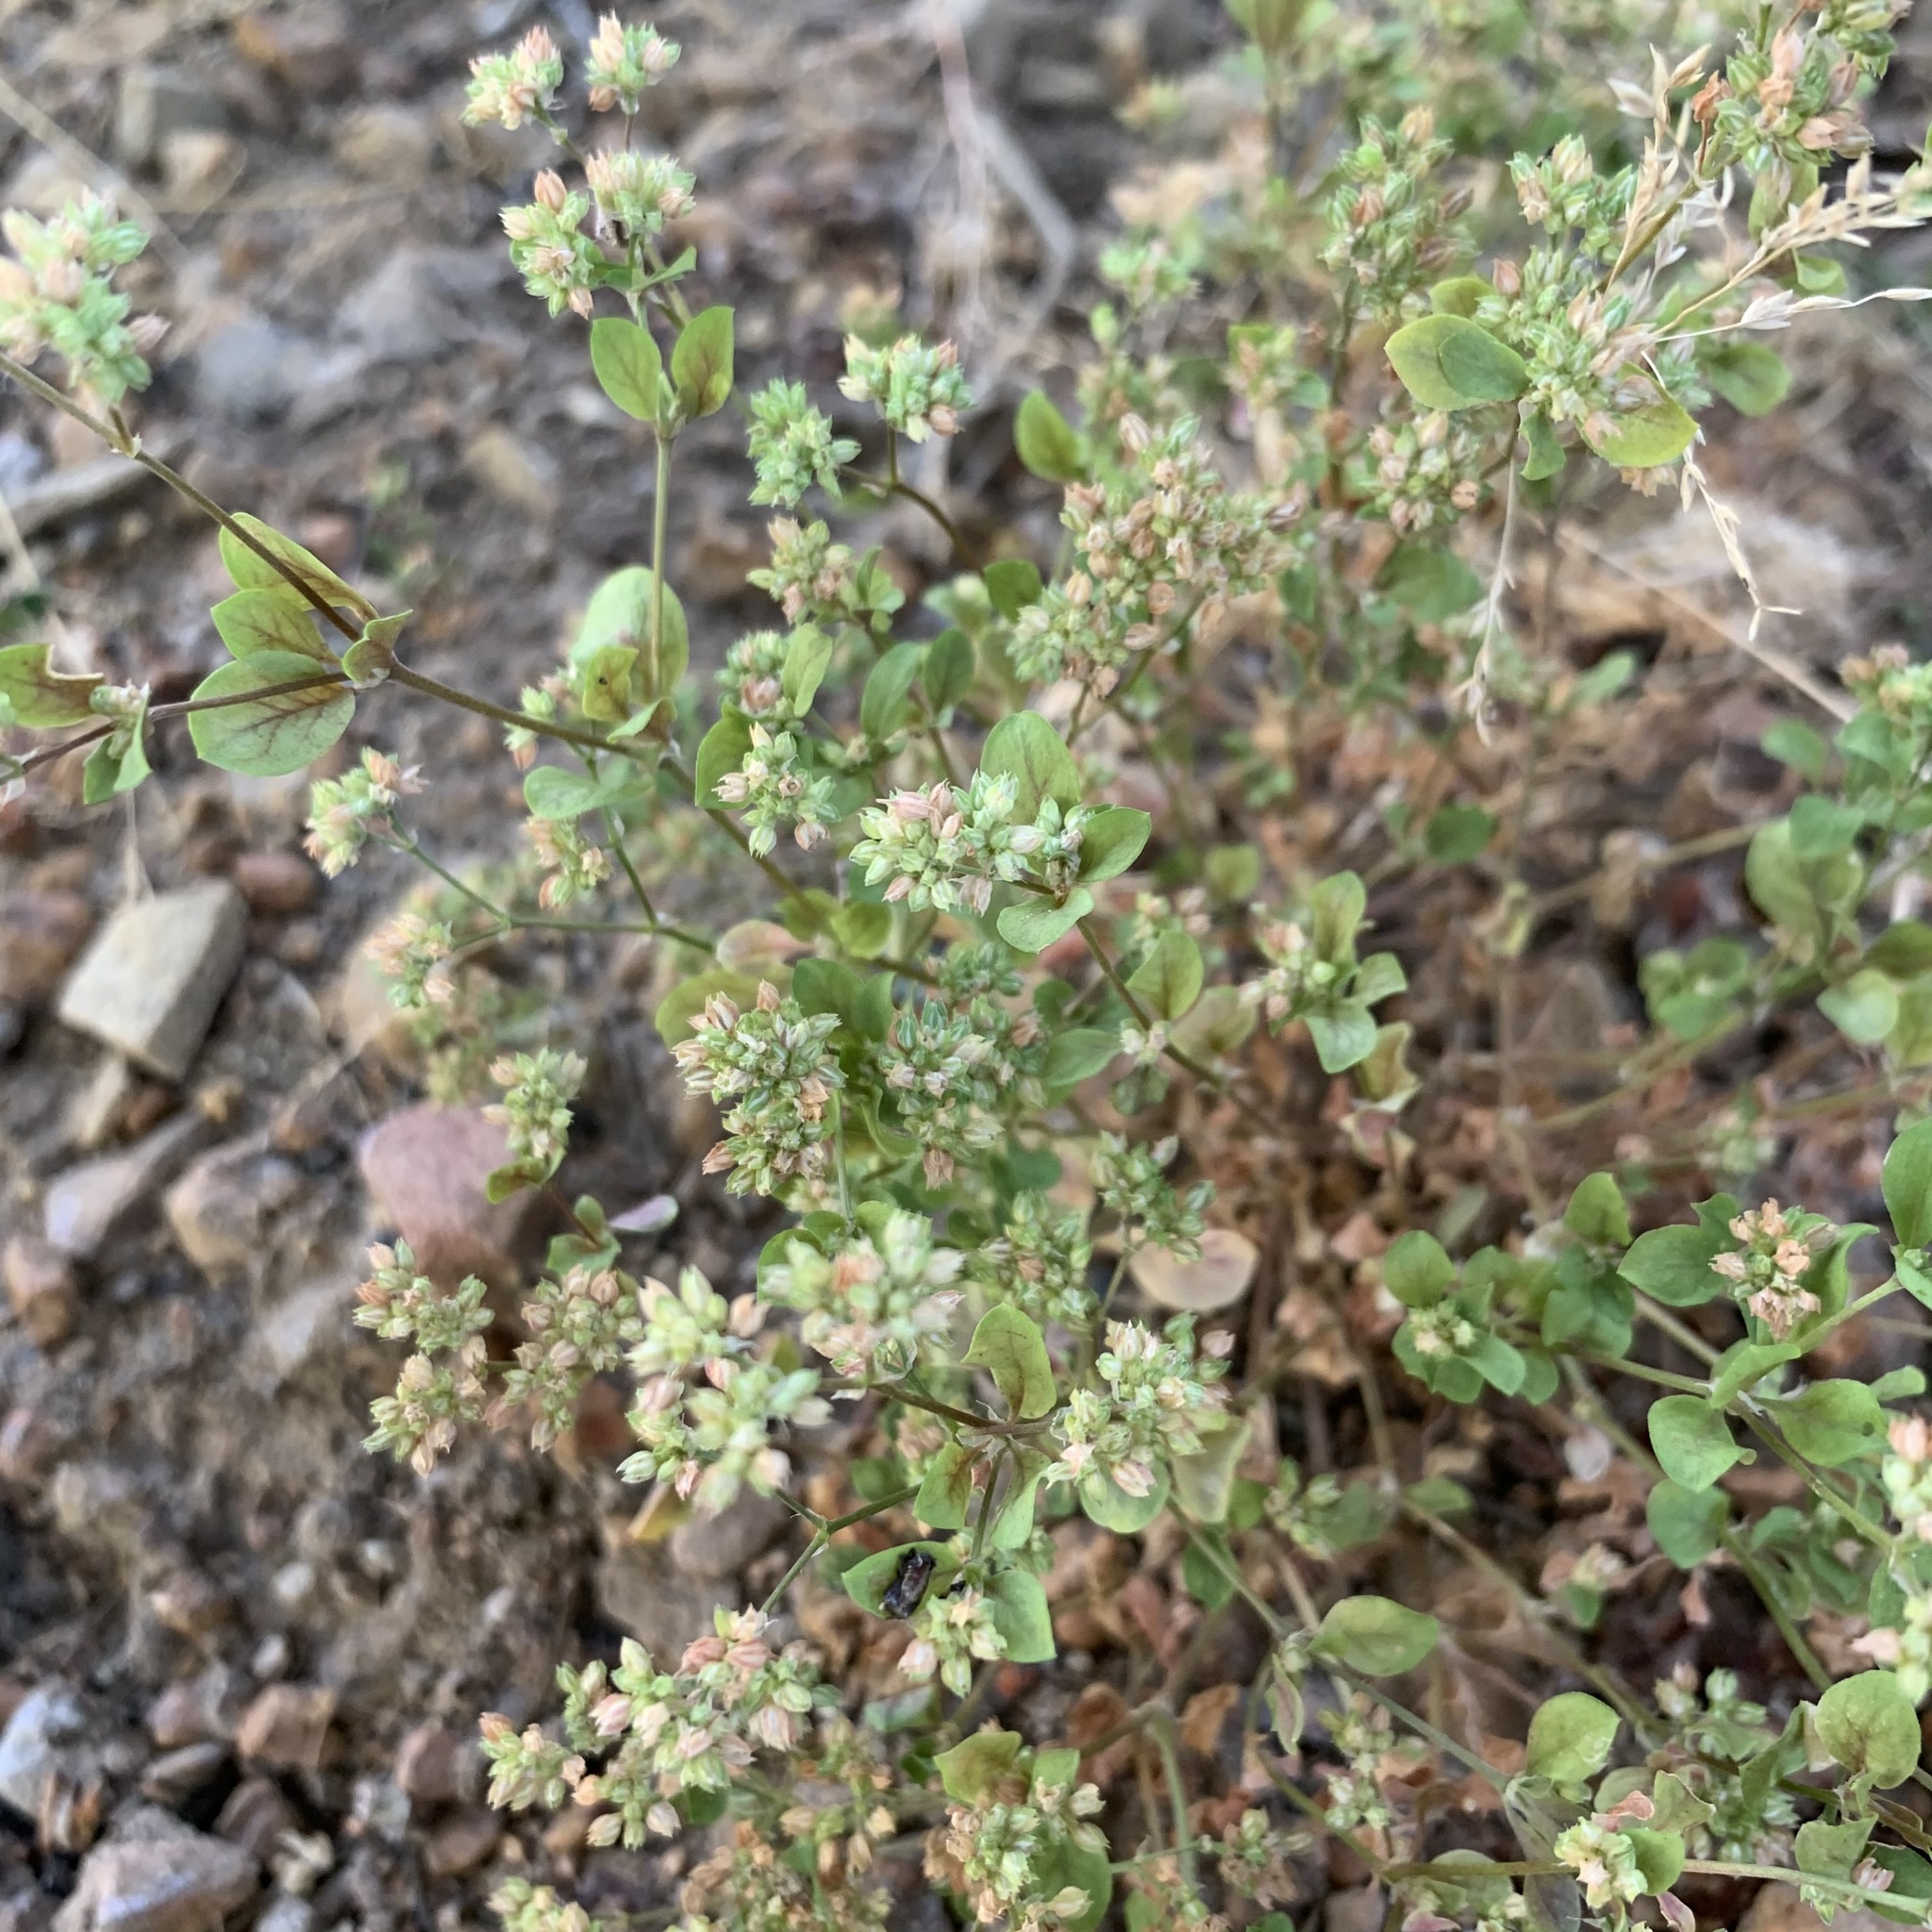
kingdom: Plantae
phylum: Tracheophyta
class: Magnoliopsida
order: Caryophyllales
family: Caryophyllaceae
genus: Polycarpon
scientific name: Polycarpon tetraphyllum
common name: Four-leaved all-seed
